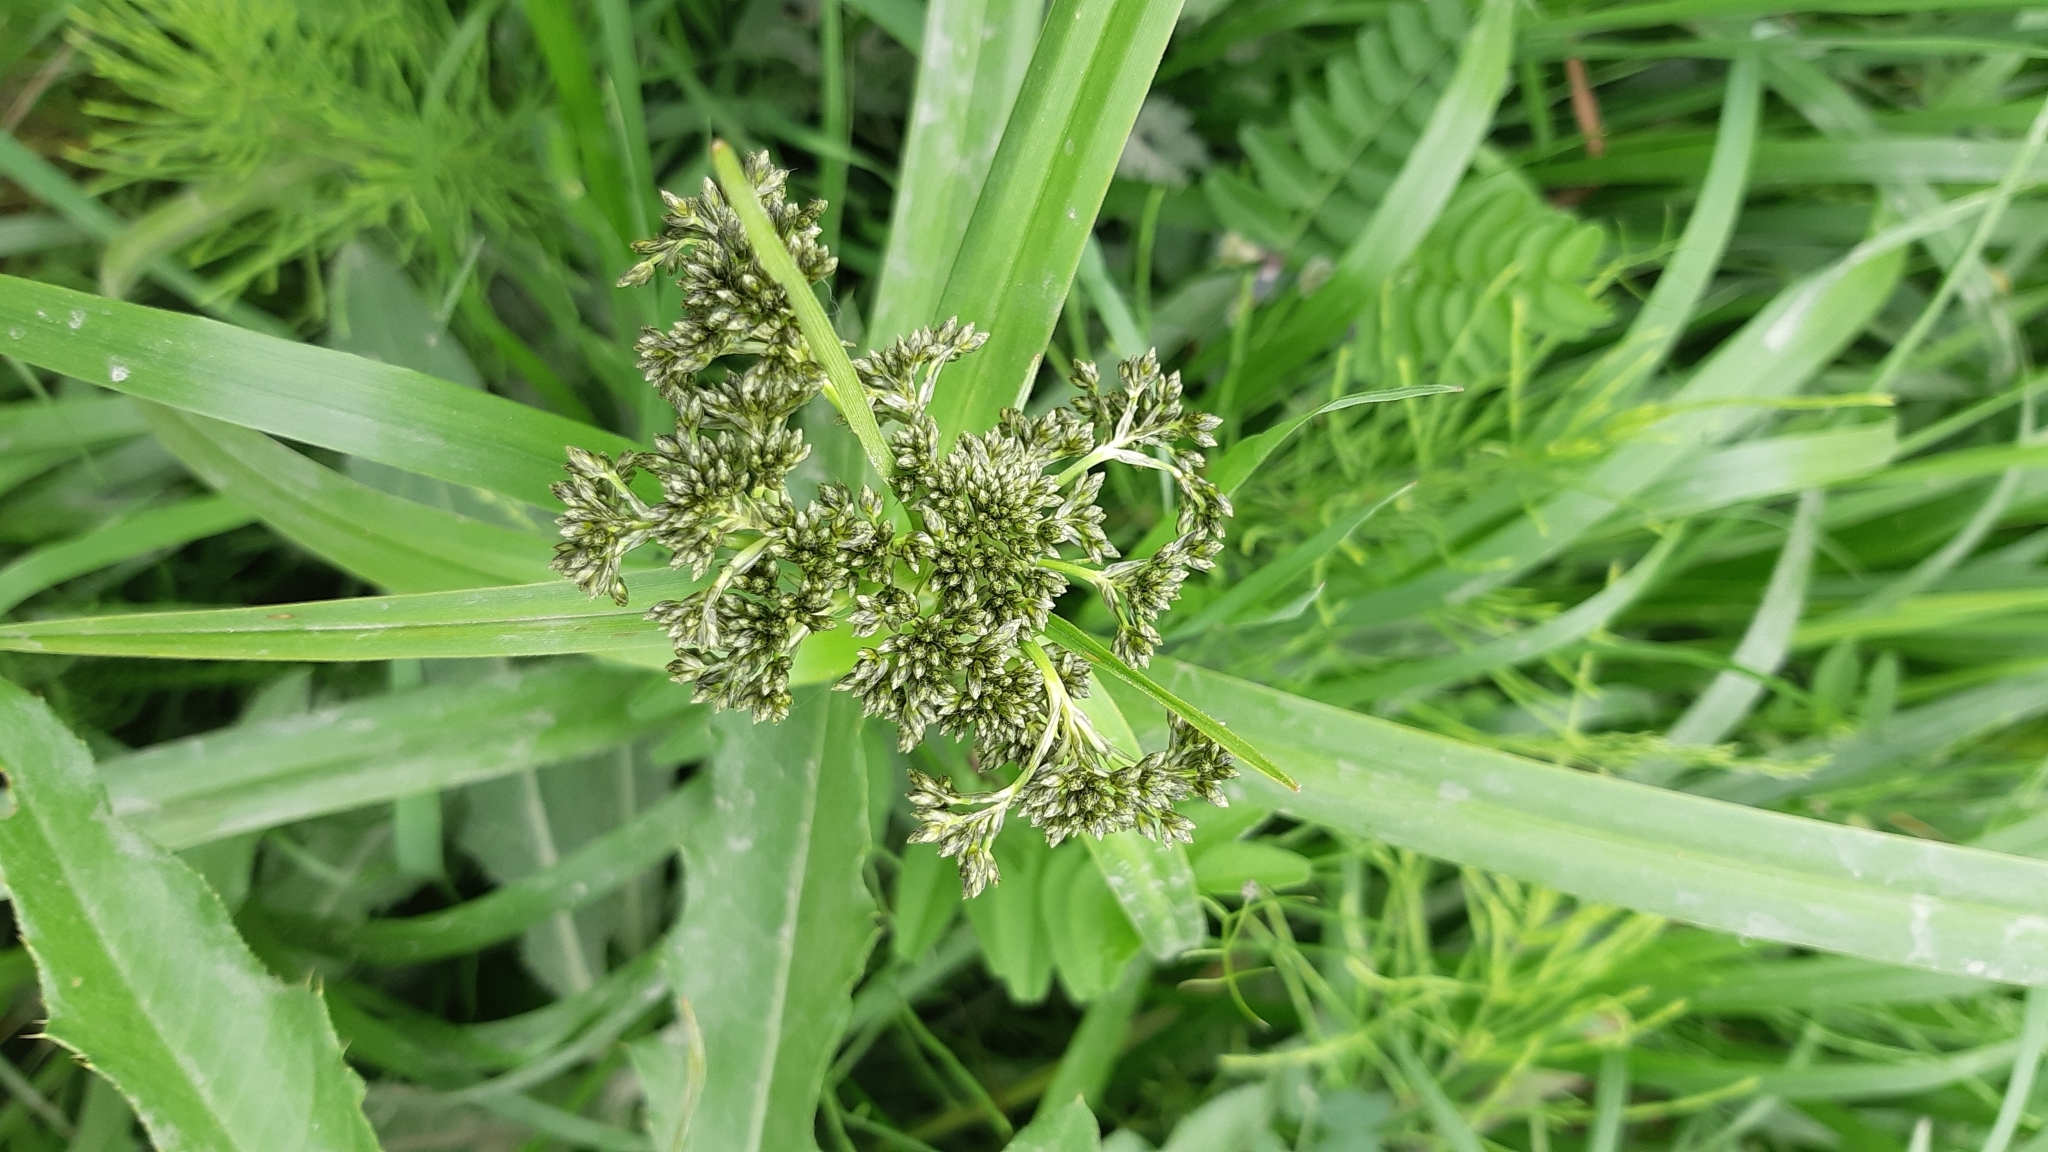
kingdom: Plantae
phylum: Tracheophyta
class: Liliopsida
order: Poales
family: Cyperaceae
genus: Scirpus
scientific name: Scirpus sylvaticus
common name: Wood club-rush
